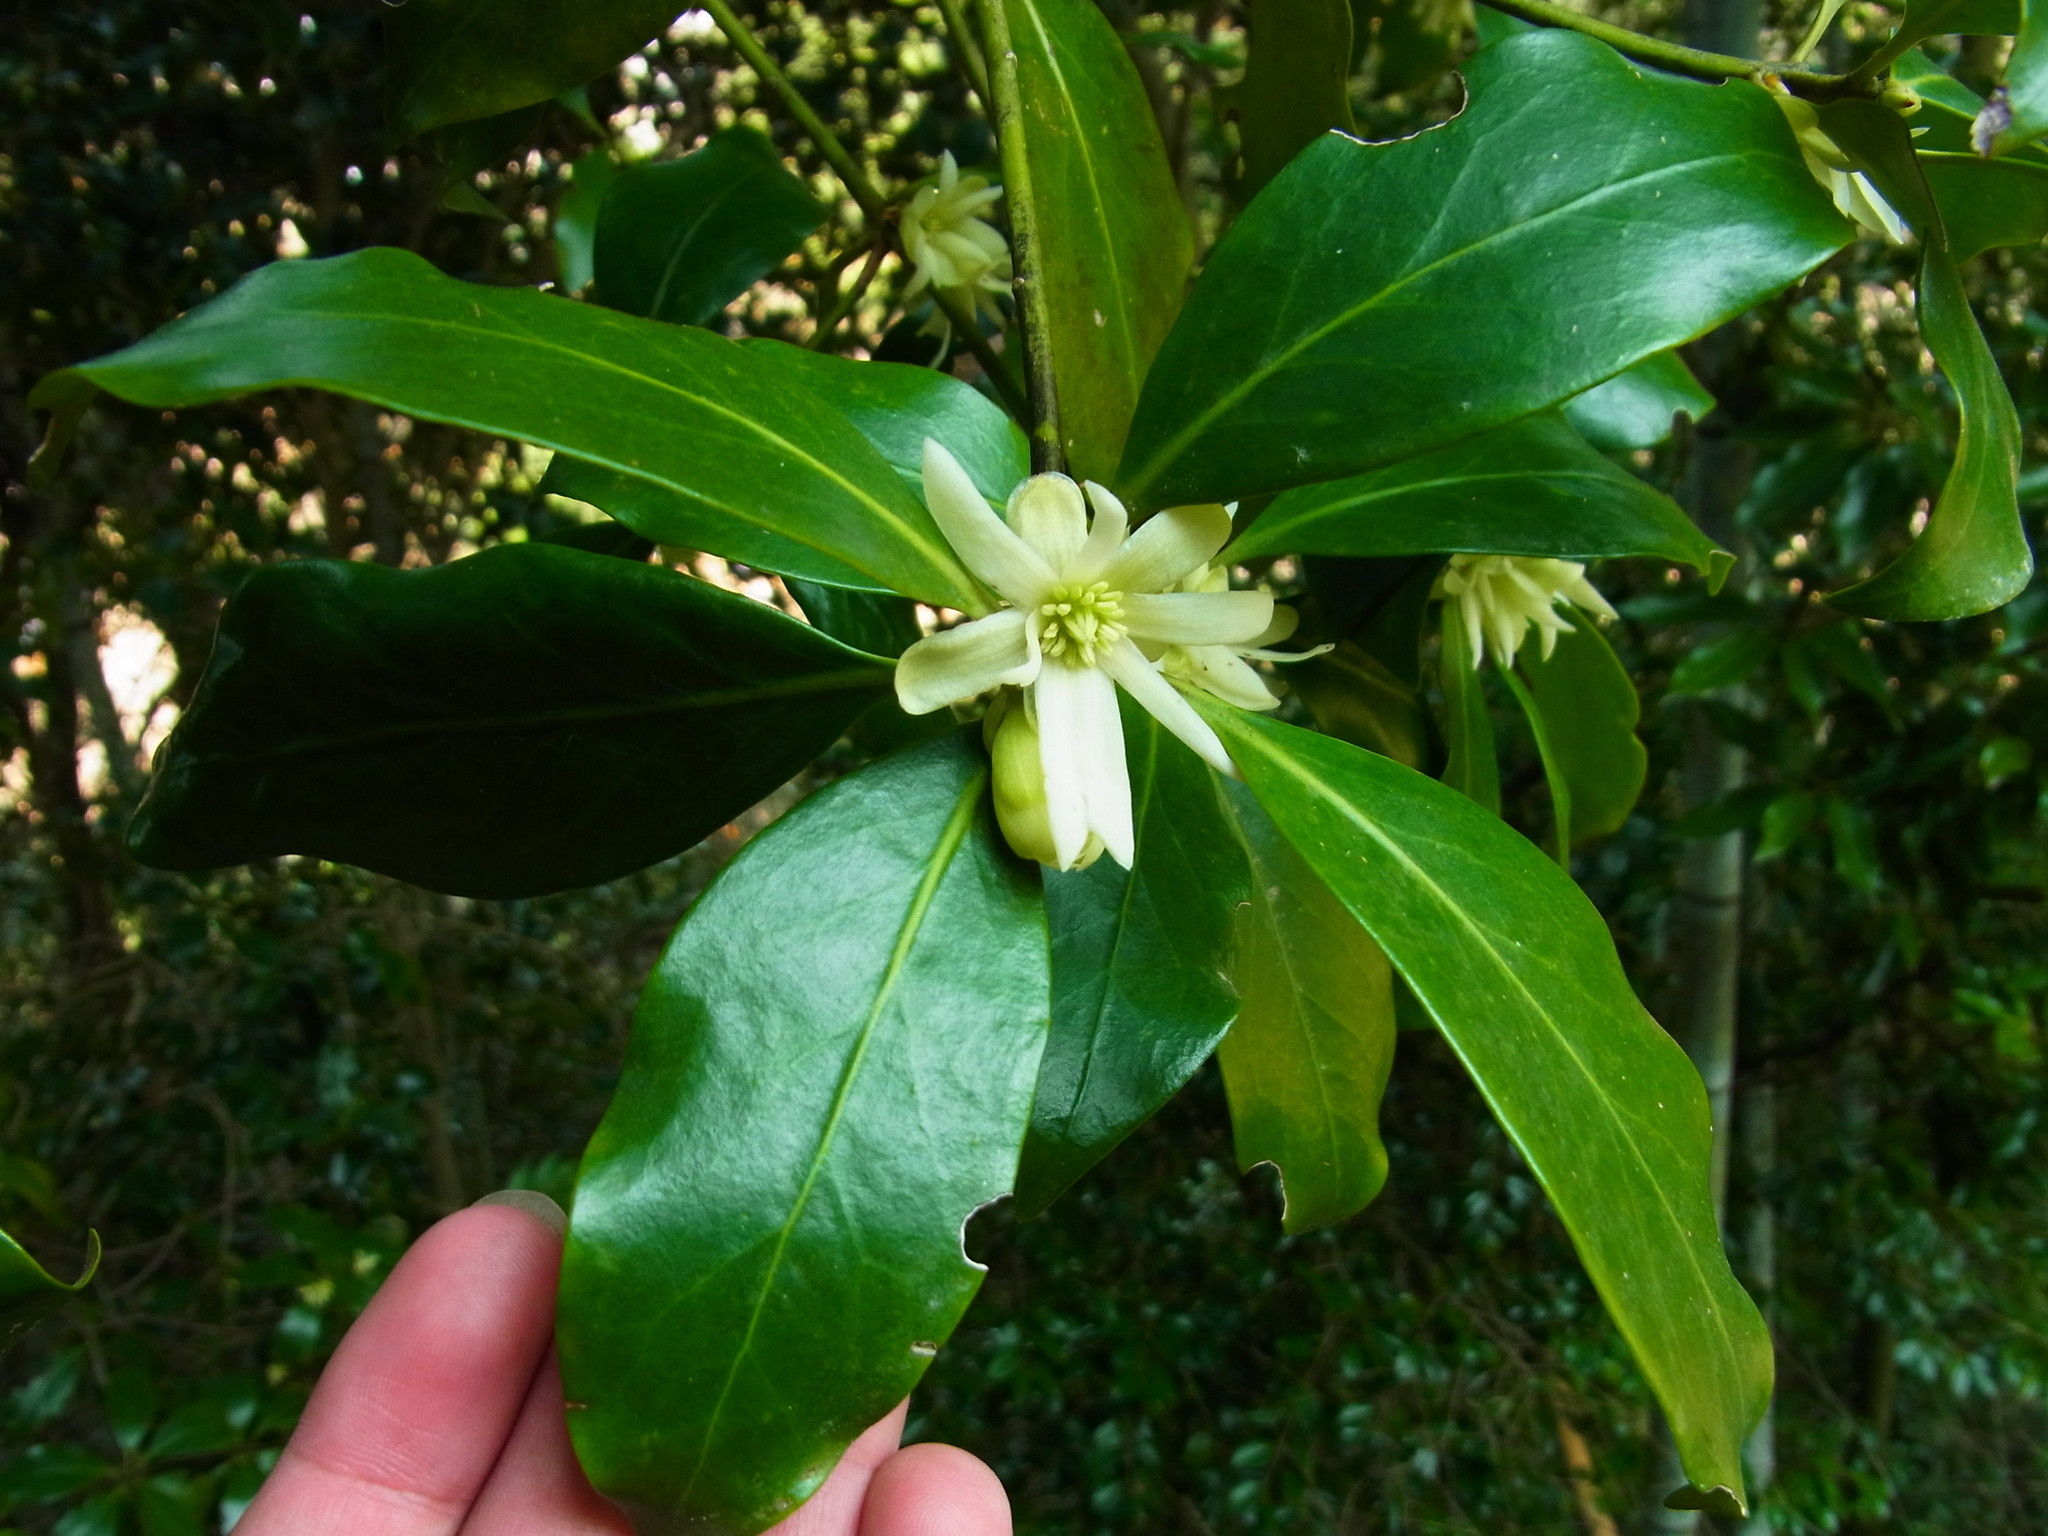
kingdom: Plantae
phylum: Tracheophyta
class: Magnoliopsida
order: Austrobaileyales
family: Schisandraceae
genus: Illicium
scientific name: Illicium anisatum
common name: Sacred anisetree
